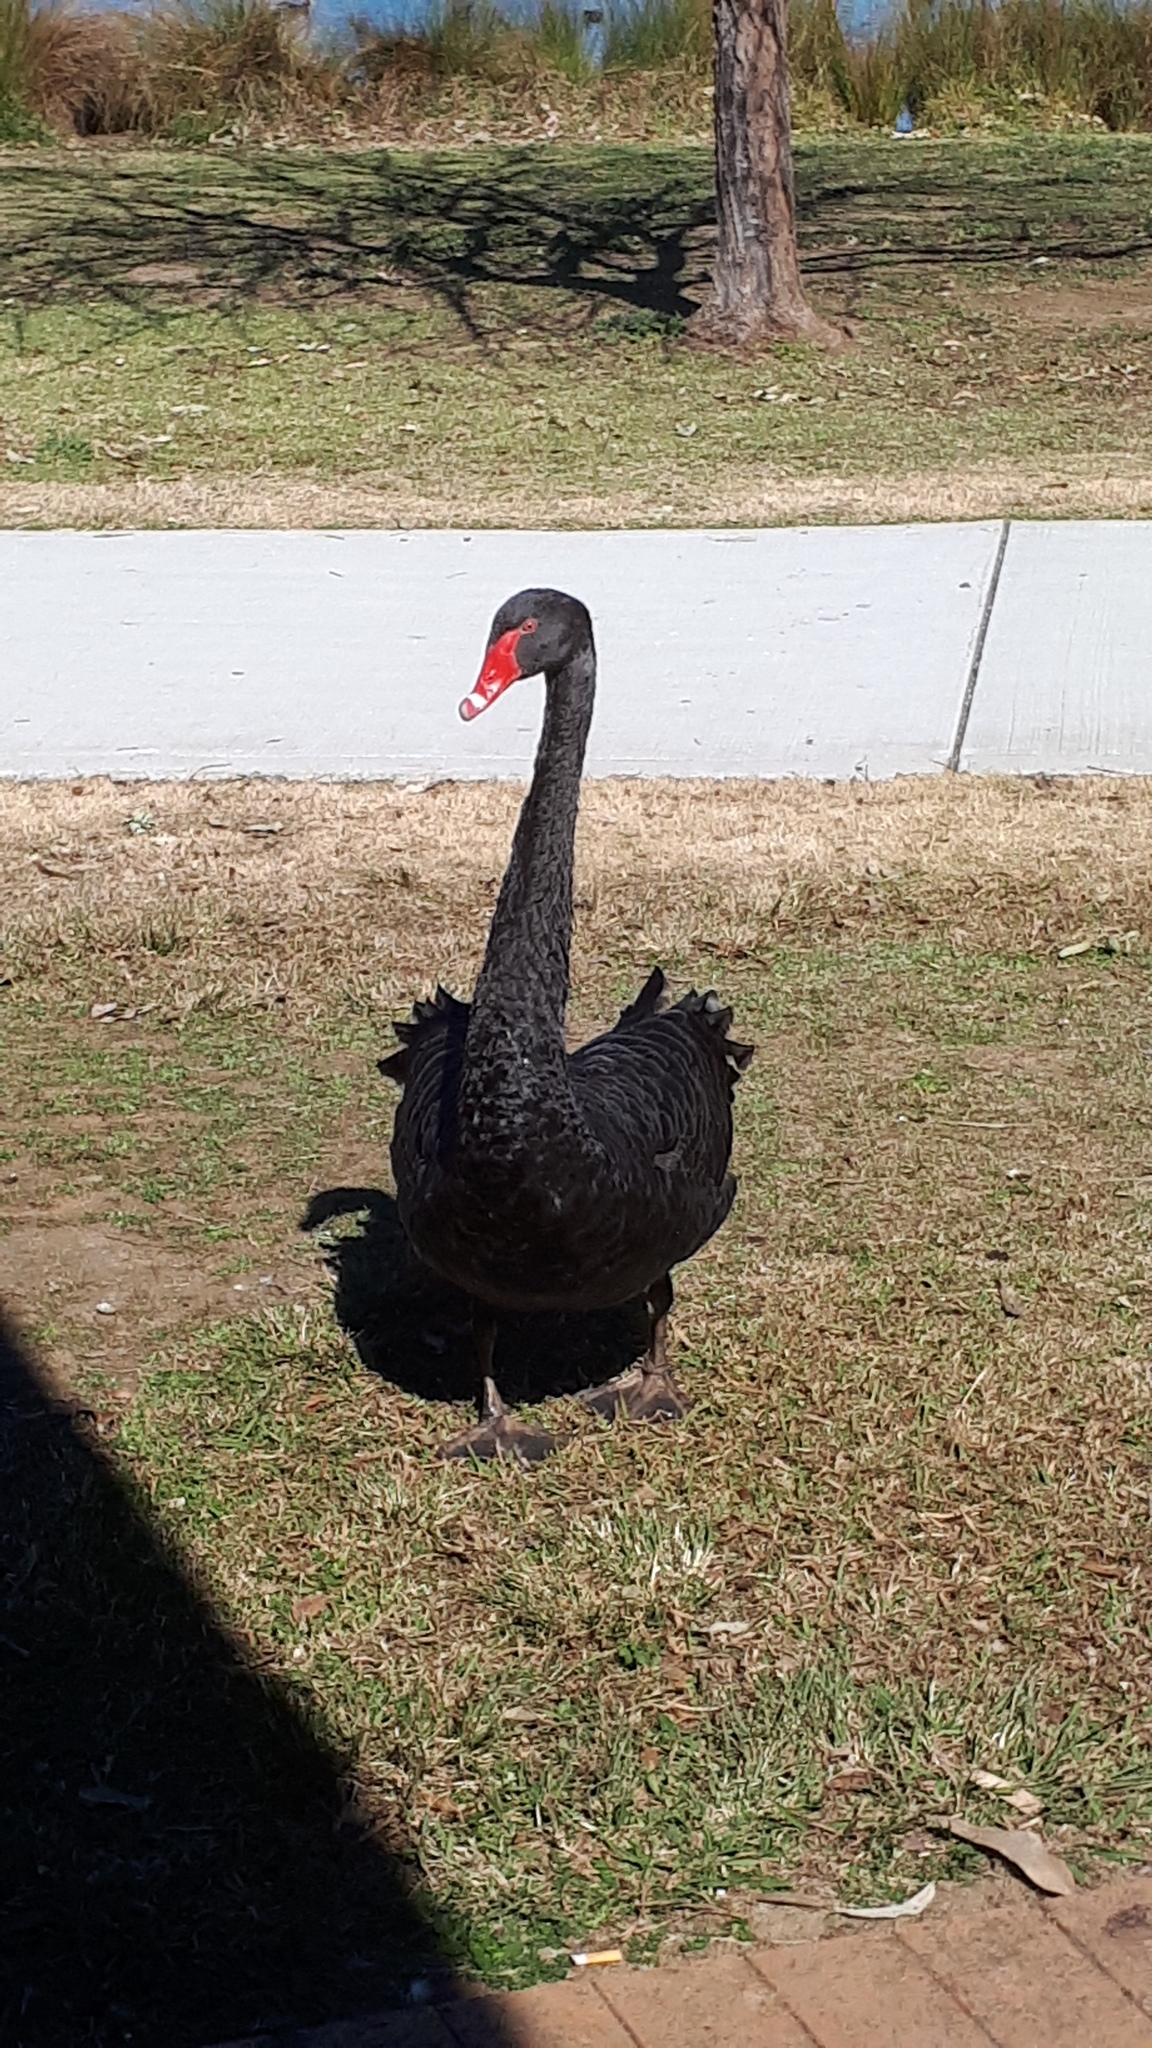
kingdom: Animalia
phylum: Chordata
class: Aves
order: Anseriformes
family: Anatidae
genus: Cygnus
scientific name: Cygnus atratus
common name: Black swan
